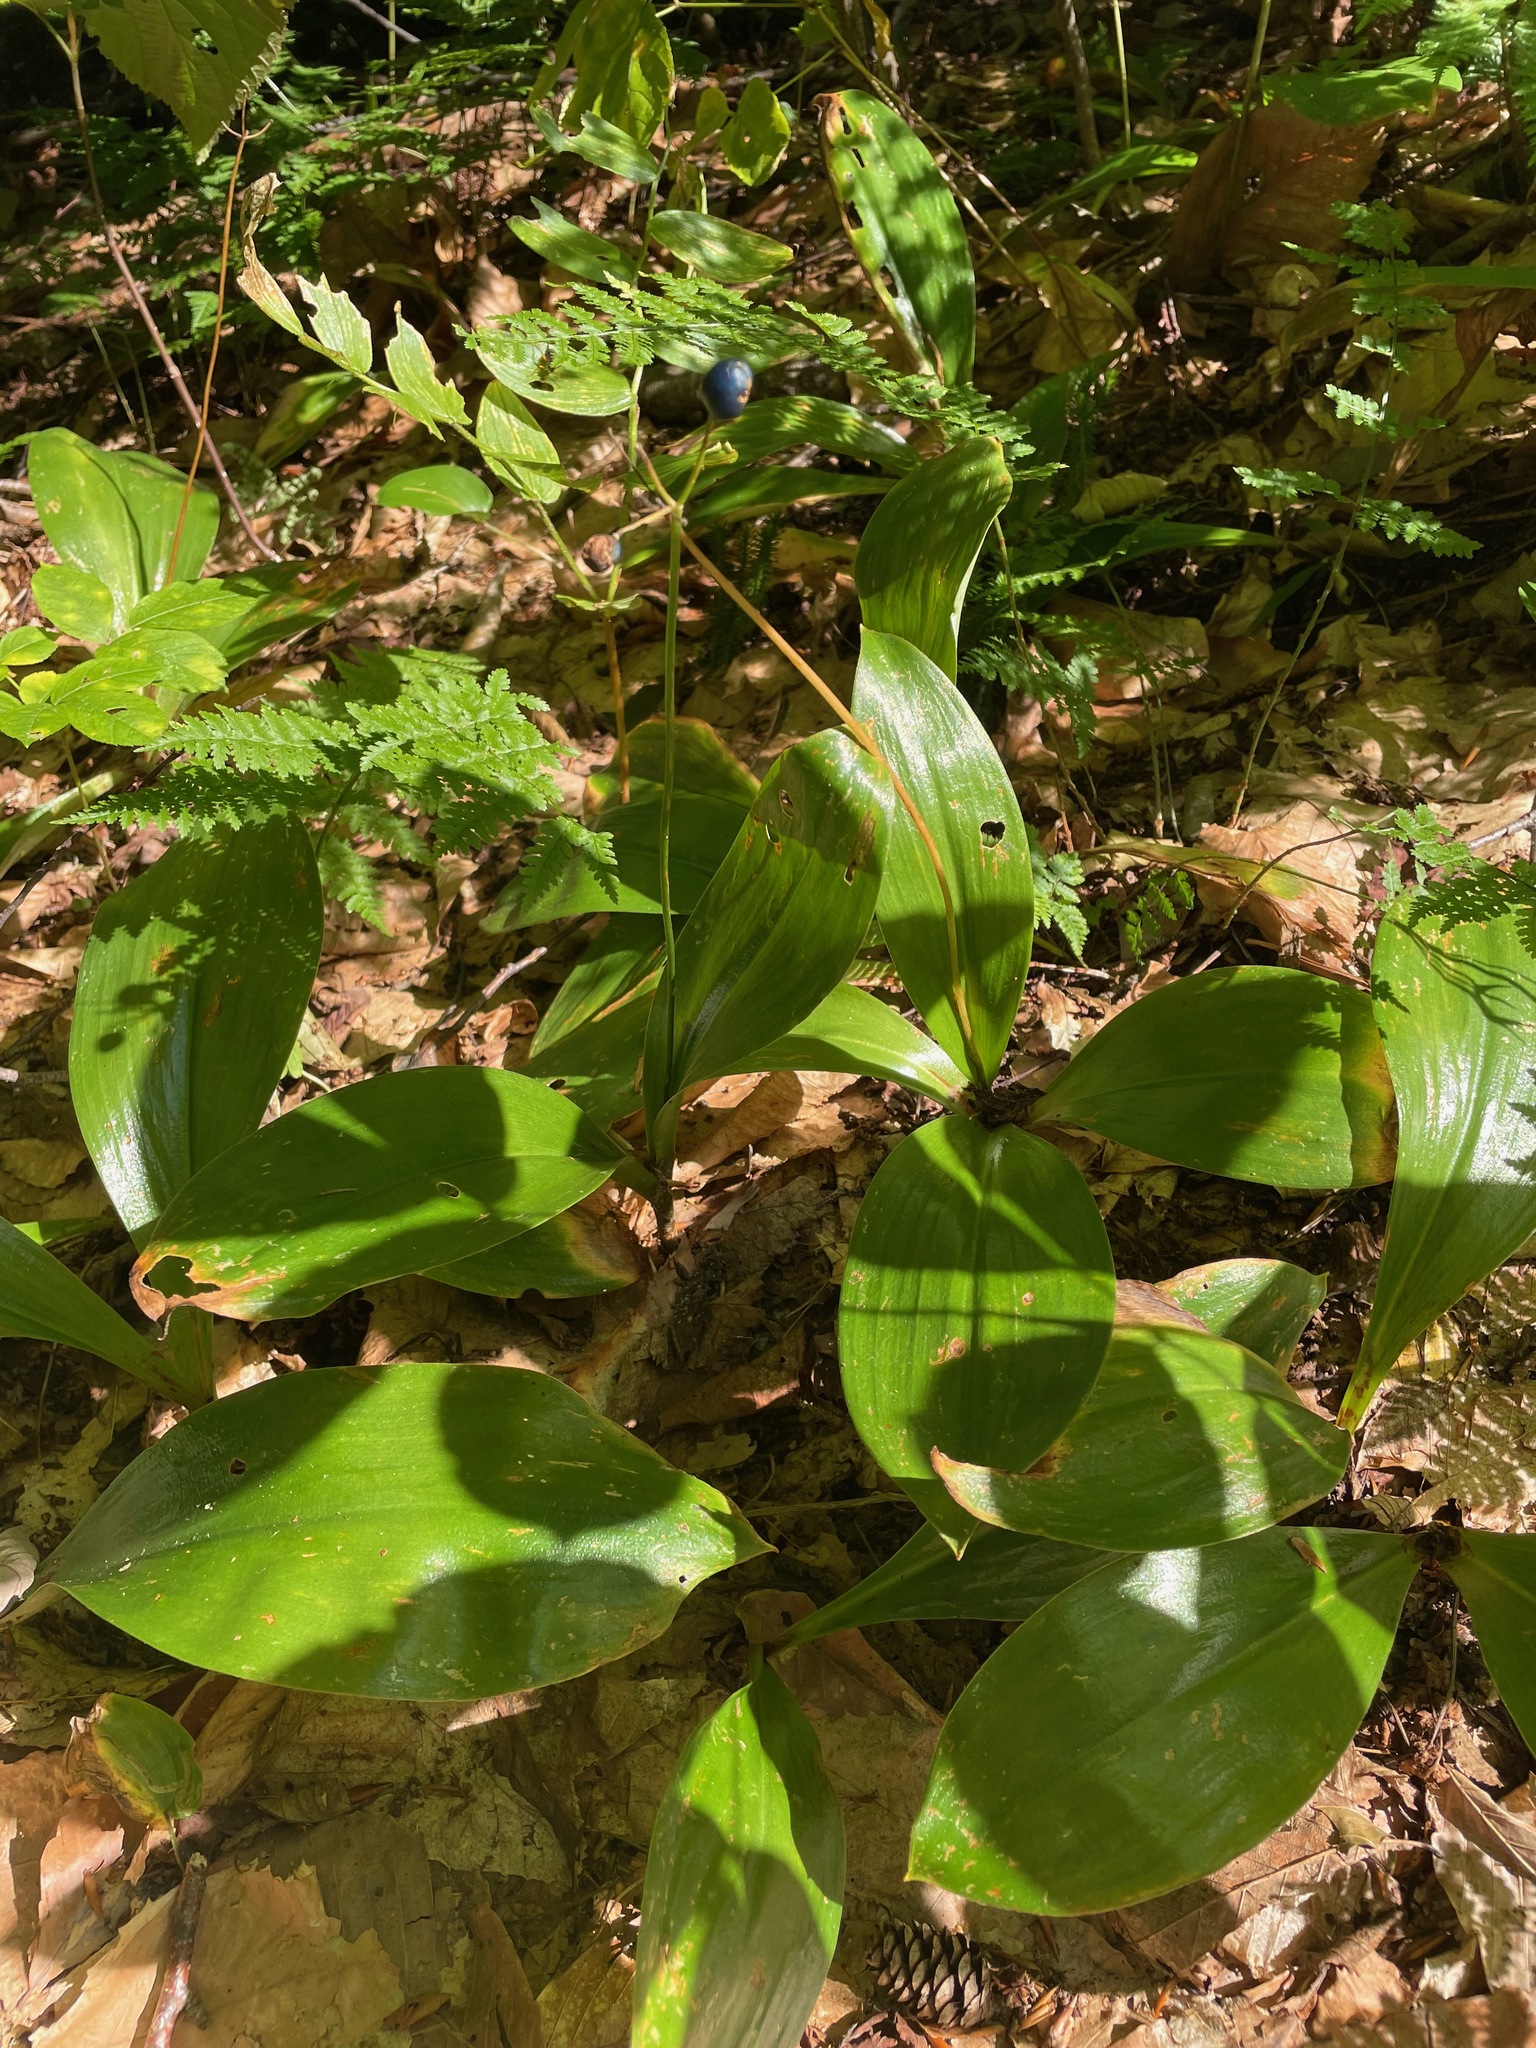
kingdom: Plantae
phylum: Tracheophyta
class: Liliopsida
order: Liliales
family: Liliaceae
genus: Clintonia
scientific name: Clintonia borealis
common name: Yellow clintonia
